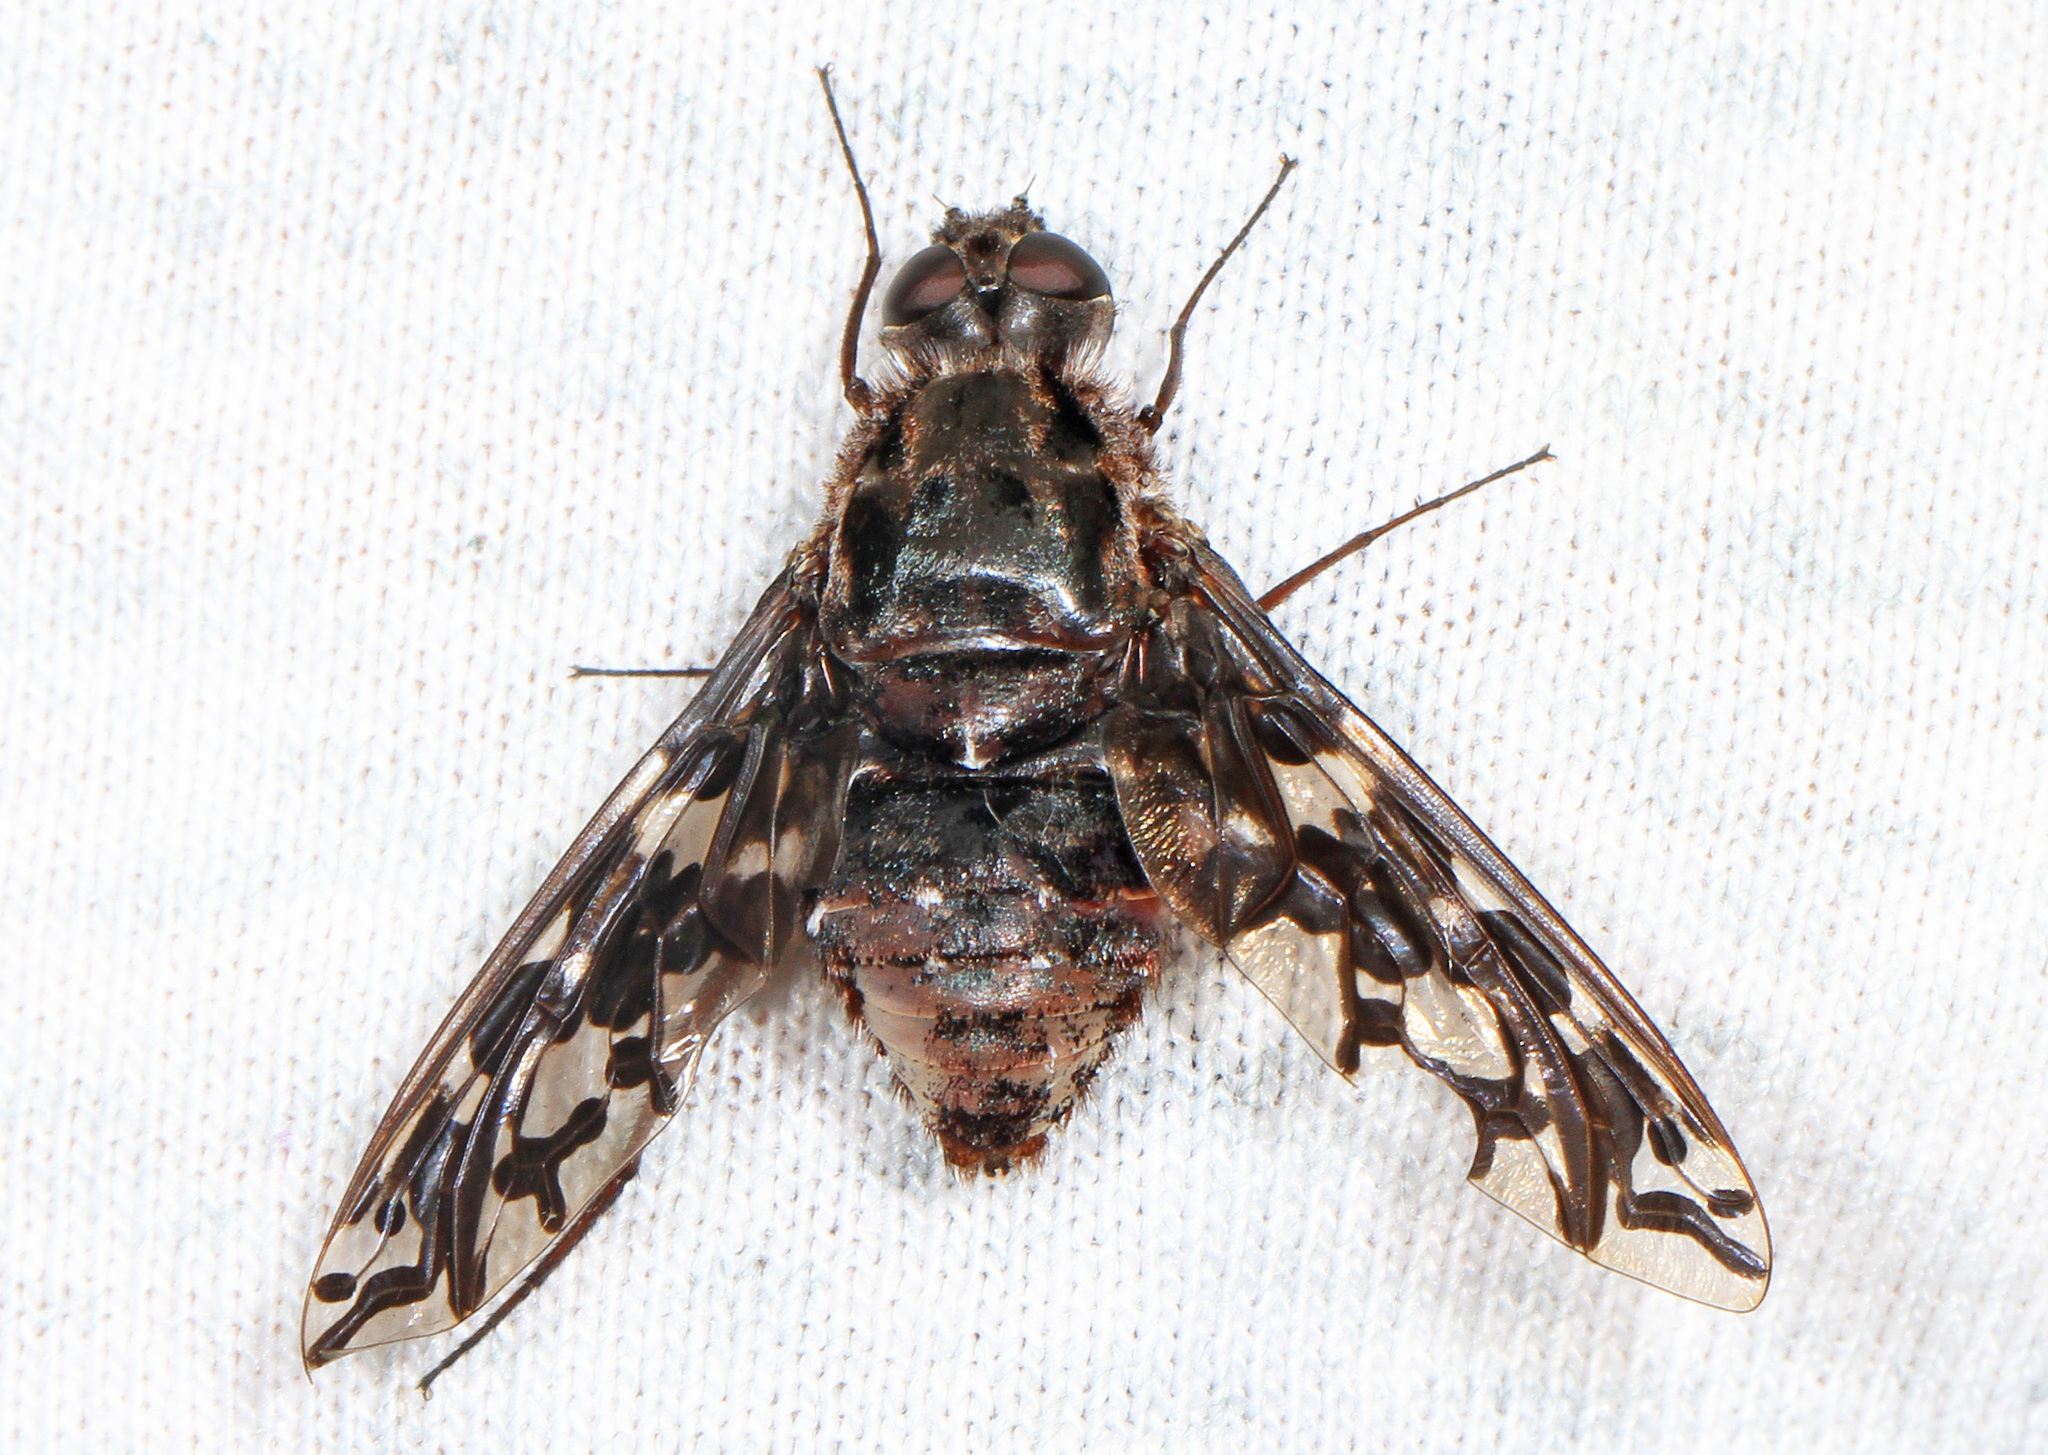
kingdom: Animalia
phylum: Arthropoda
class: Insecta
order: Diptera
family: Bombyliidae
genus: Xenox
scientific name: Xenox tigrinus
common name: Tiger bee fly
